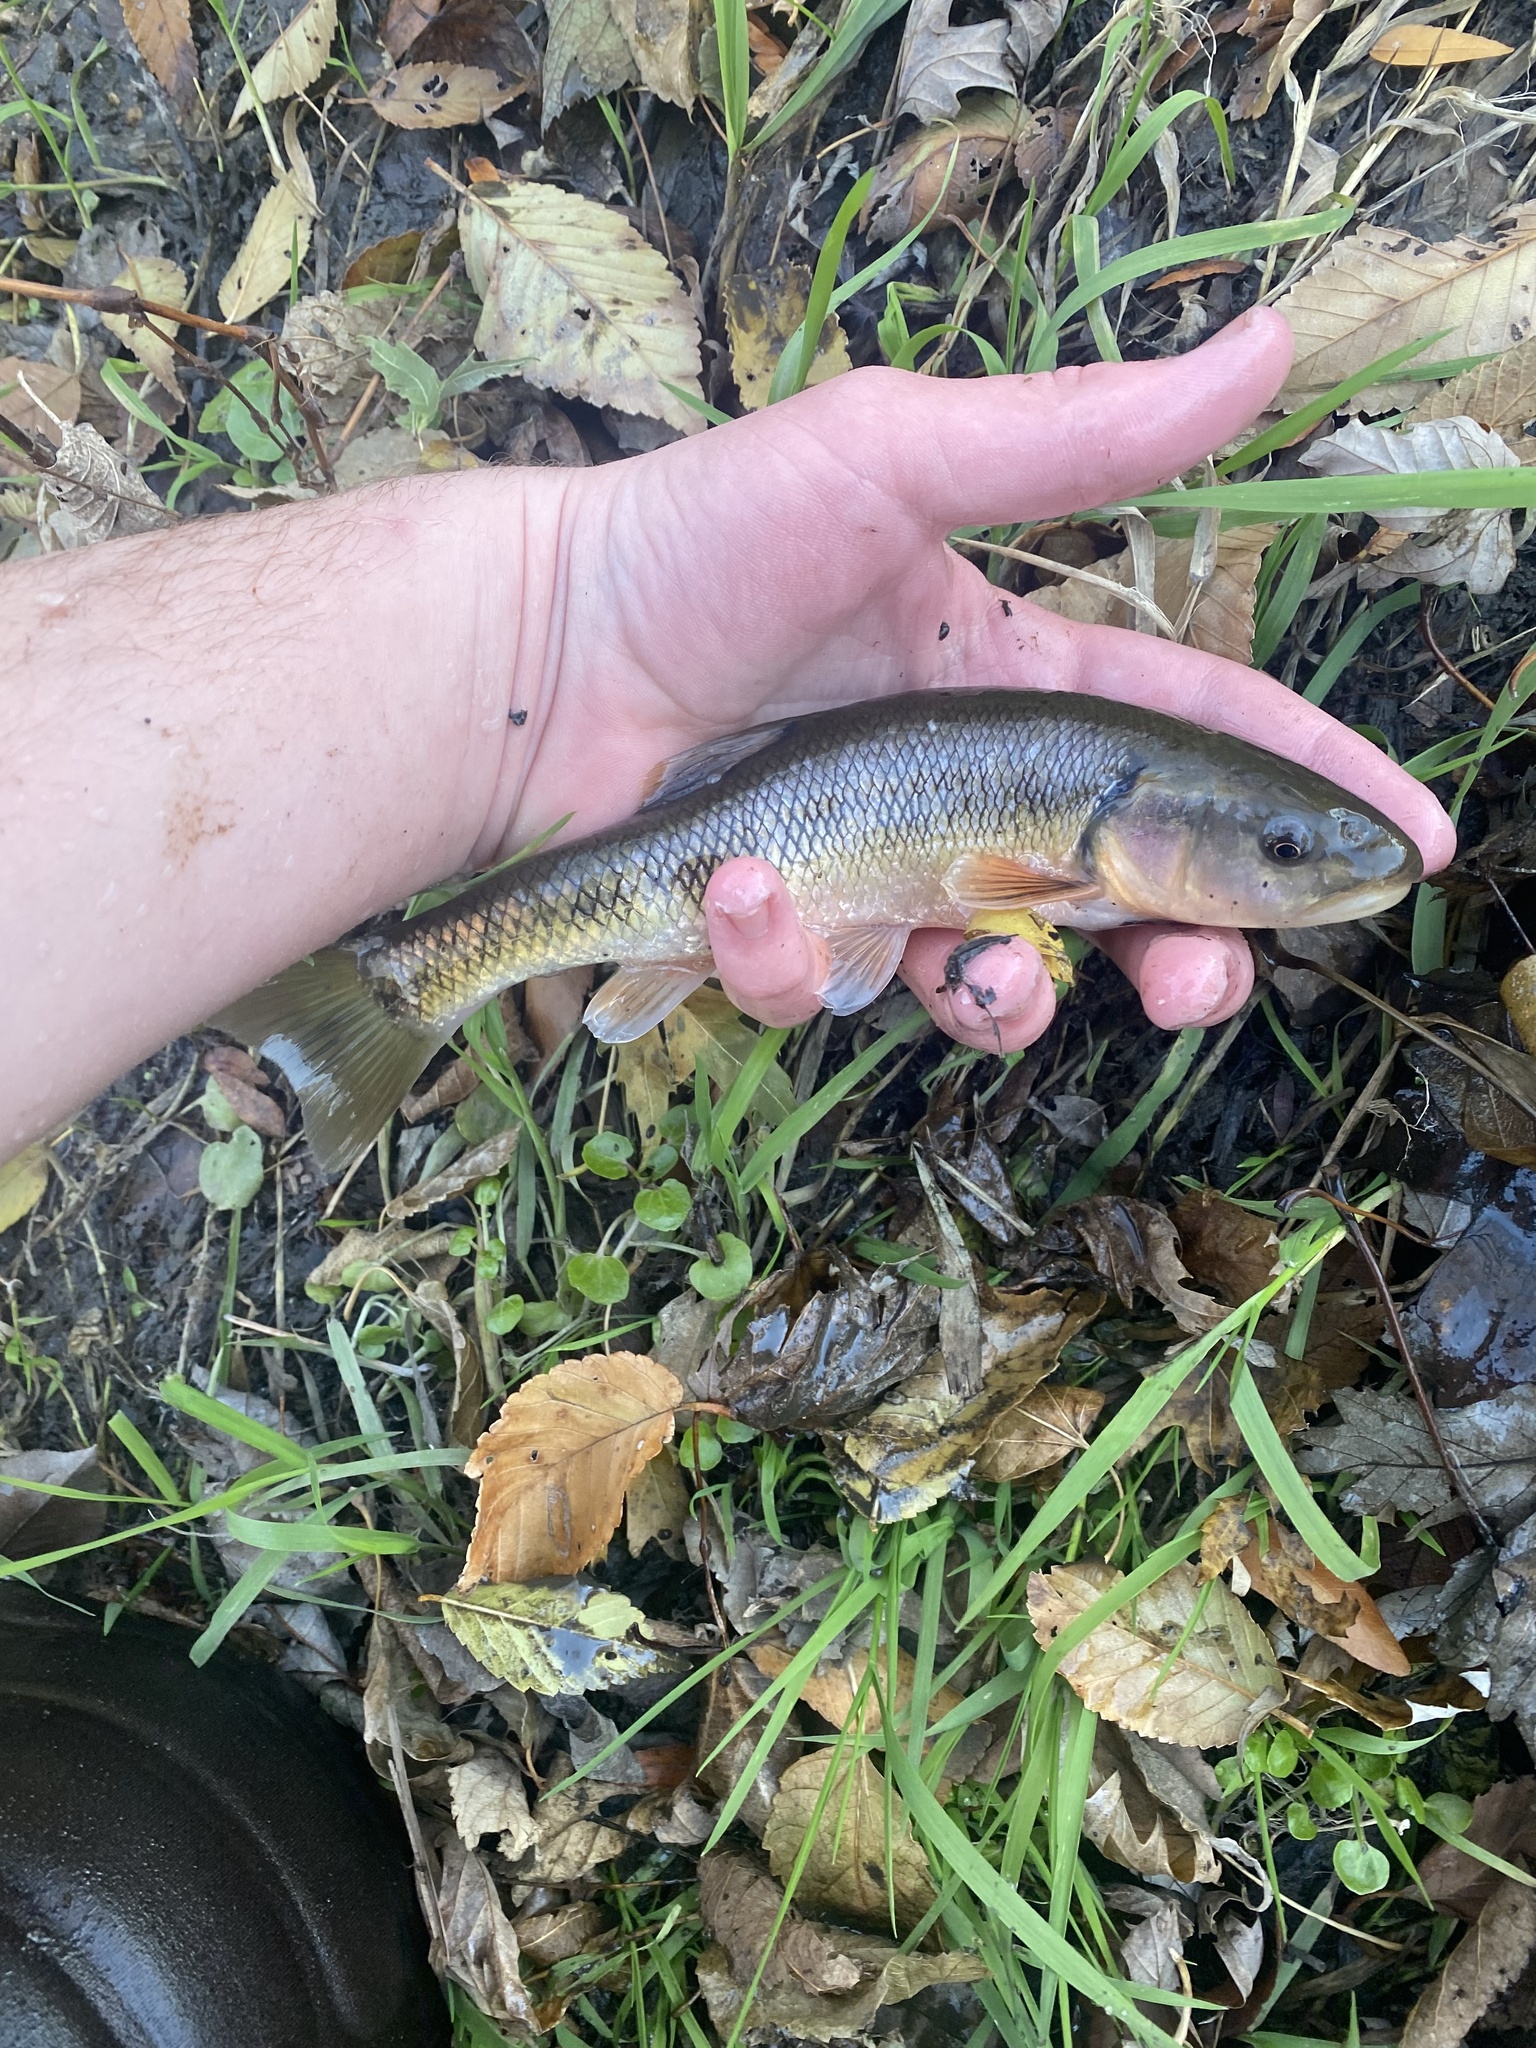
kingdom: Animalia
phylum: Chordata
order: Cypriniformes
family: Cyprinidae
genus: Semotilus
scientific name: Semotilus atromaculatus
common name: Creek chub
